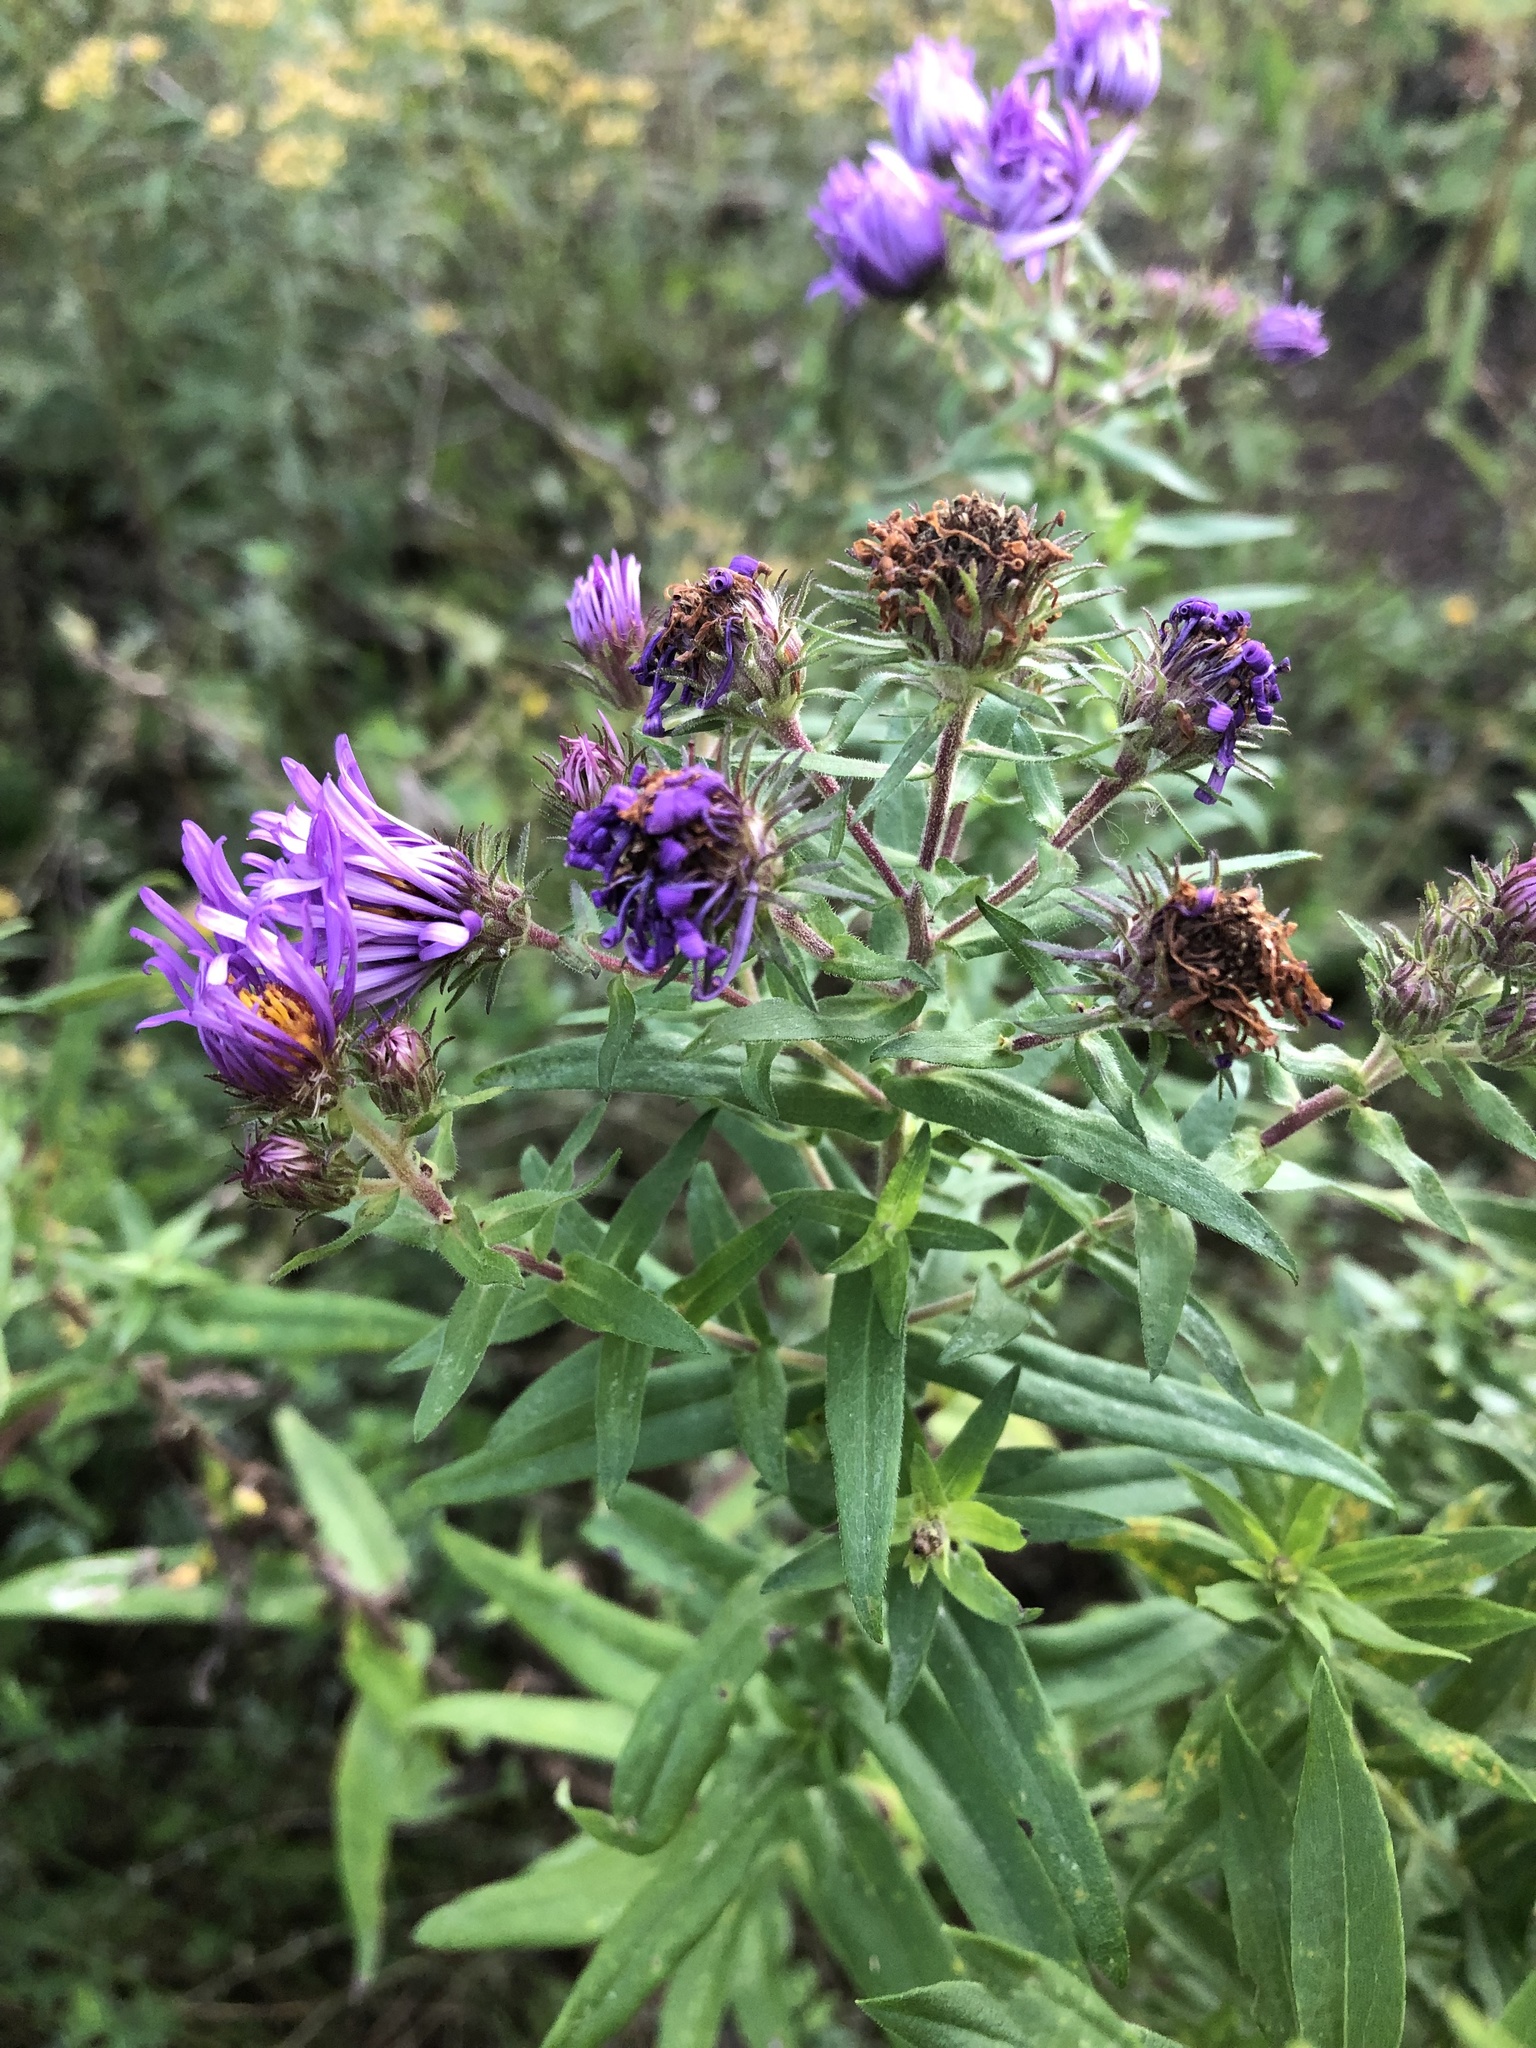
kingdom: Plantae
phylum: Tracheophyta
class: Magnoliopsida
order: Asterales
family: Asteraceae
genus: Symphyotrichum
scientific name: Symphyotrichum novae-angliae
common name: Michaelmas daisy
